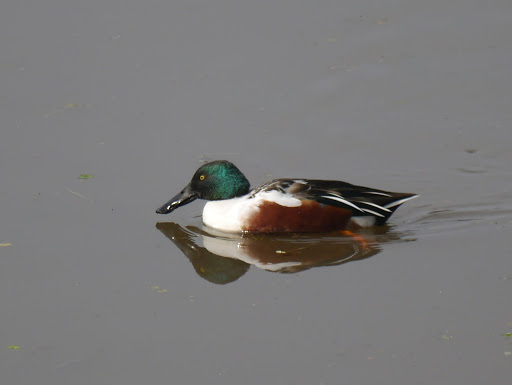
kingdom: Animalia
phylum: Chordata
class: Aves
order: Anseriformes
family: Anatidae
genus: Spatula
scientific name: Spatula clypeata
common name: Northern shoveler
